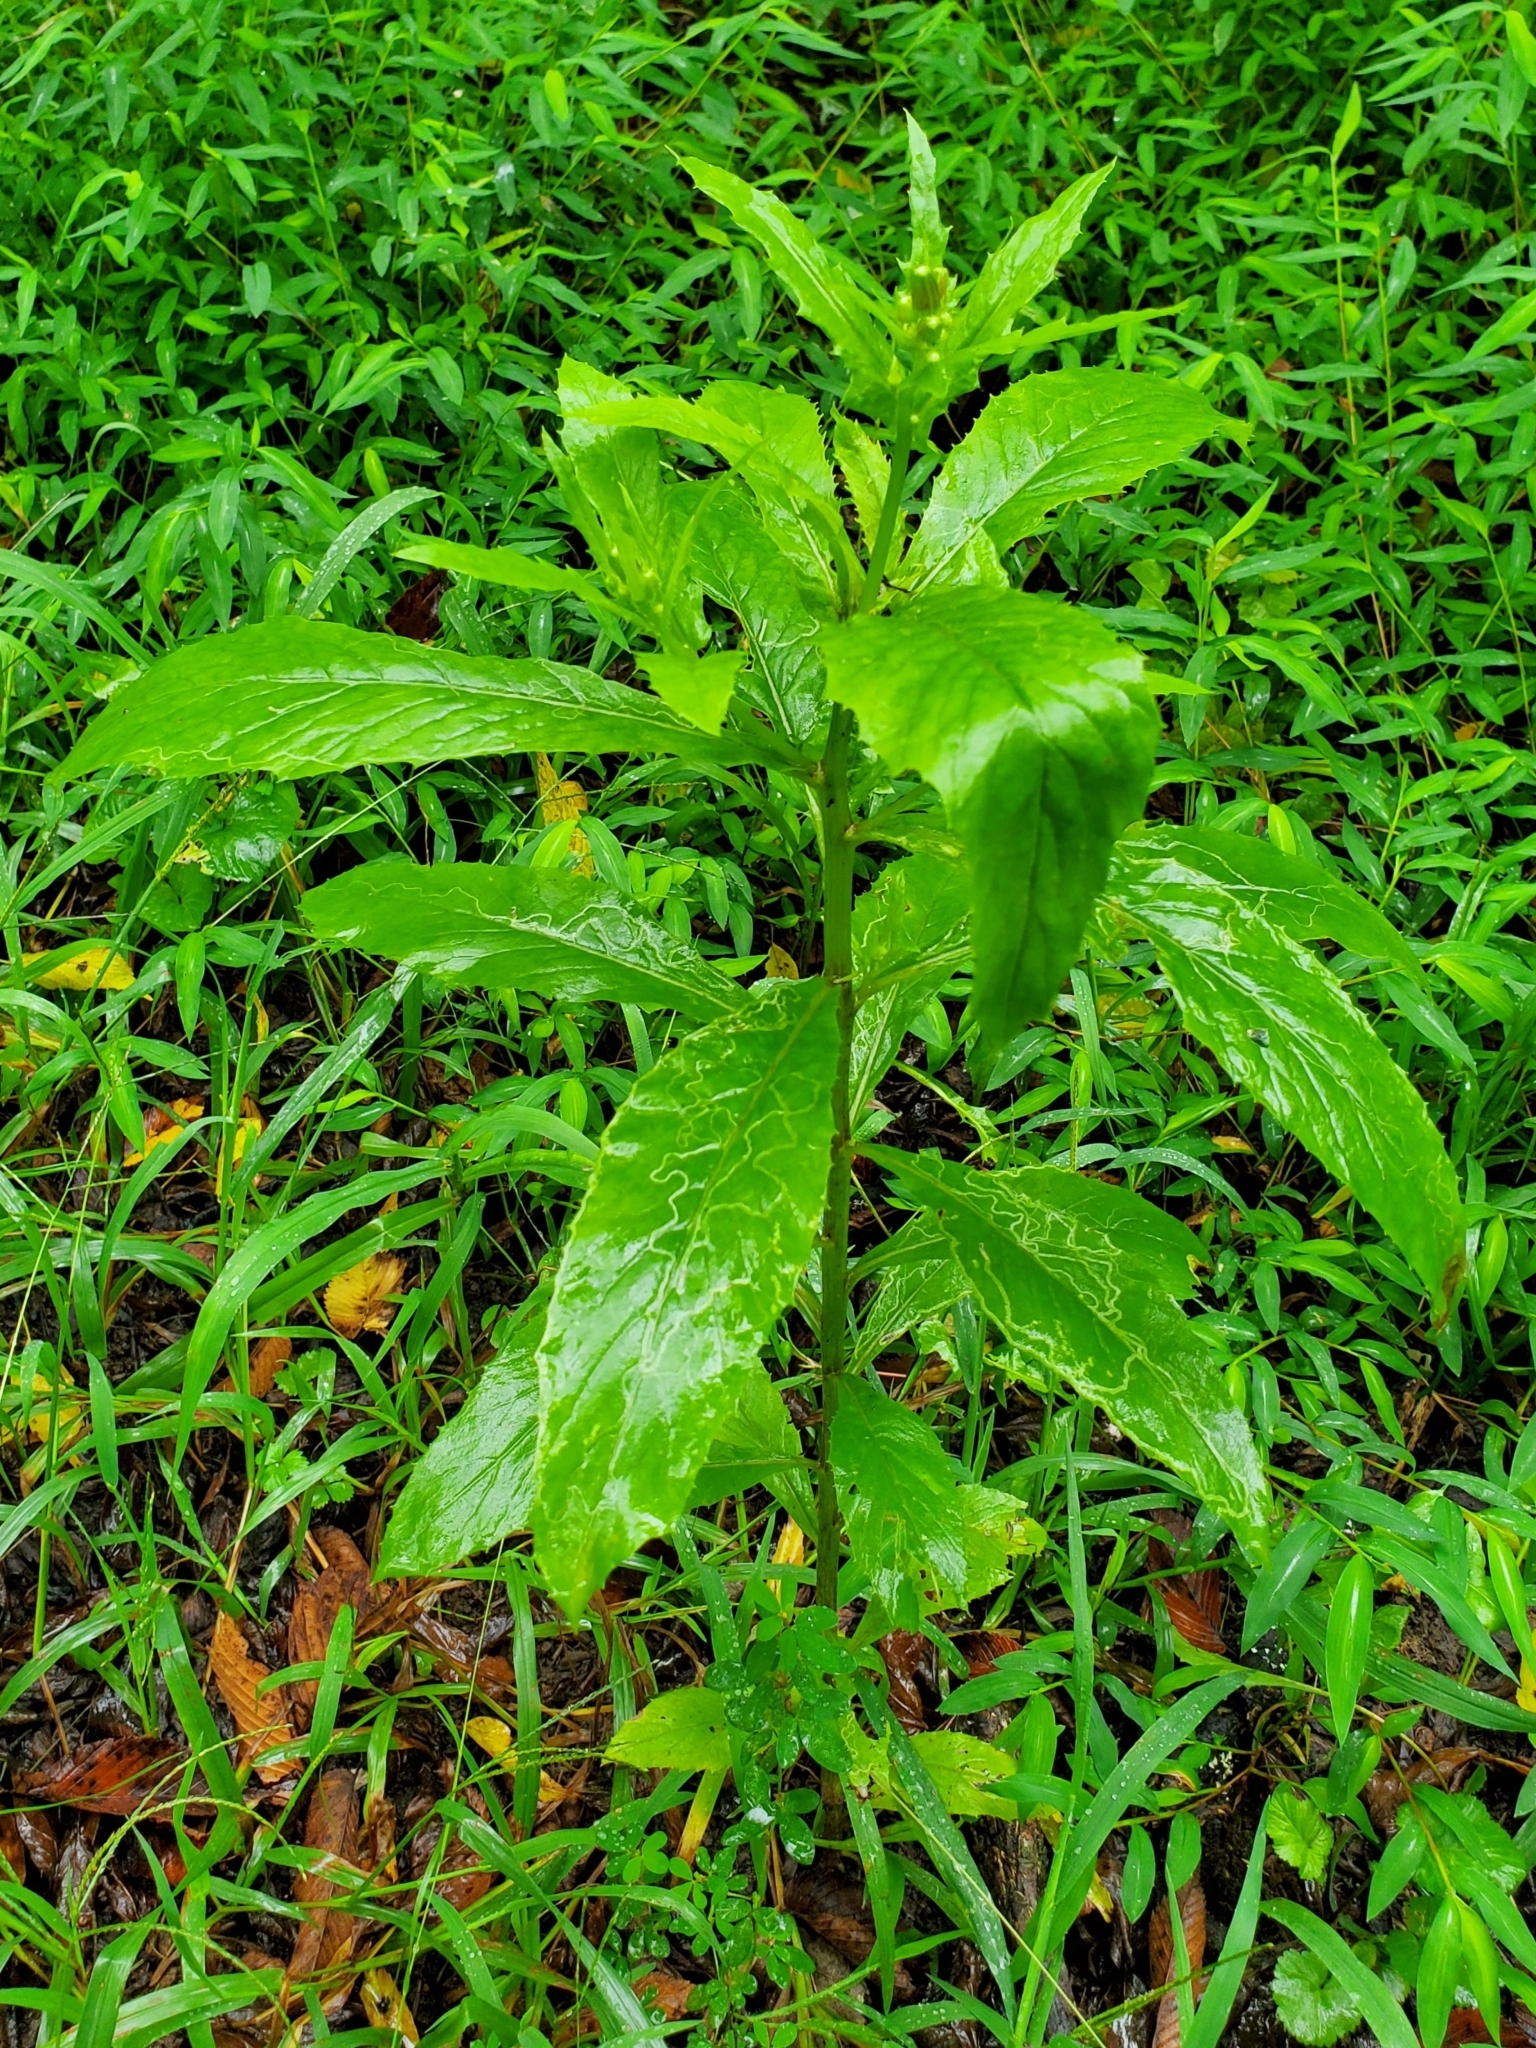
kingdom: Animalia
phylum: Arthropoda
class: Insecta
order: Lepidoptera
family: Gracillariidae
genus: Phyllocnistis
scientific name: Phyllocnistis insignis
